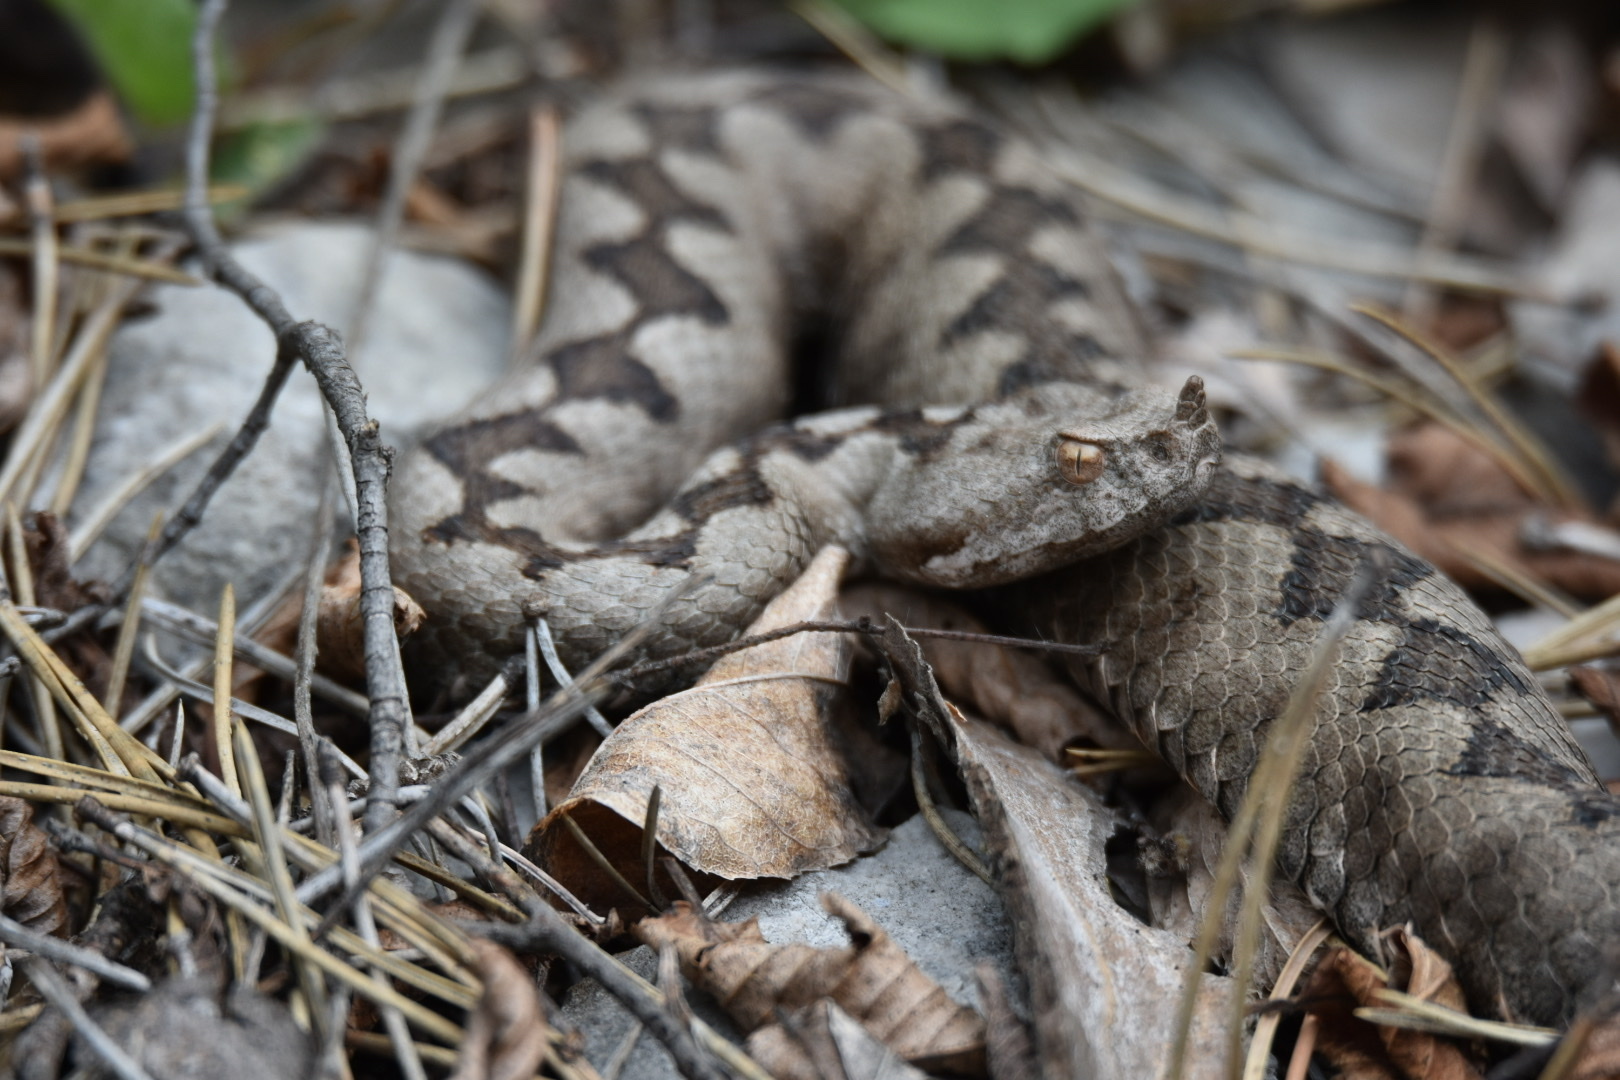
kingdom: Animalia
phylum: Chordata
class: Squamata
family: Viperidae
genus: Vipera
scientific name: Vipera ammodytes
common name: Sand viper
